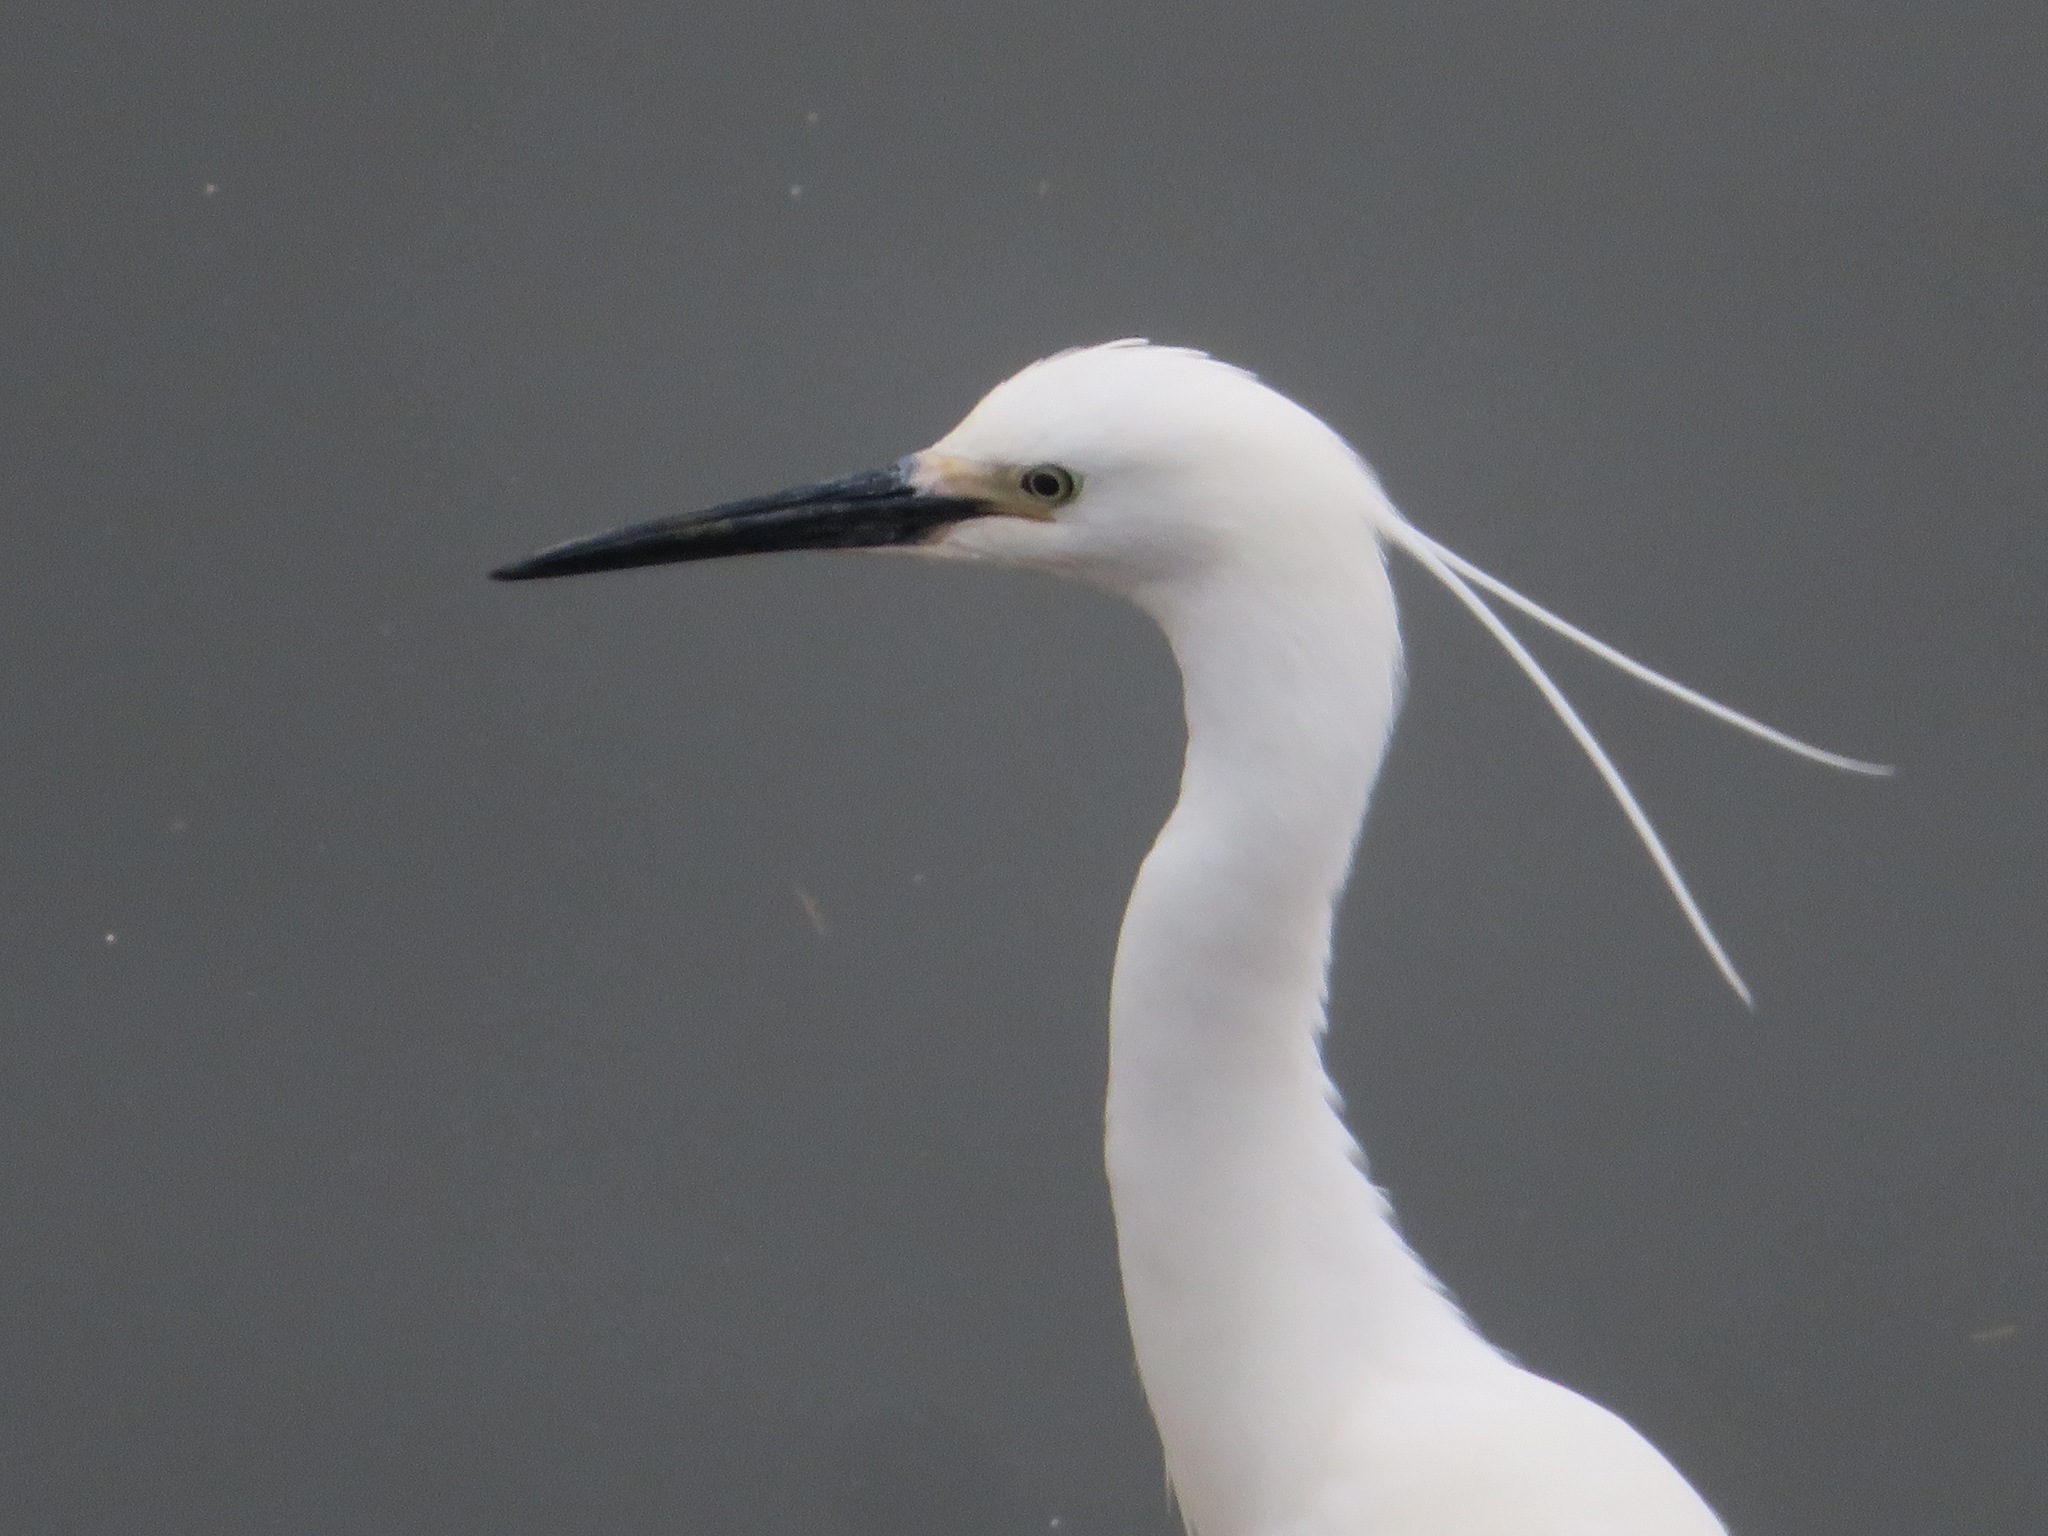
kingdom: Animalia
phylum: Chordata
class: Aves
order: Pelecaniformes
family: Ardeidae
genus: Egretta
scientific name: Egretta garzetta
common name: Little egret
